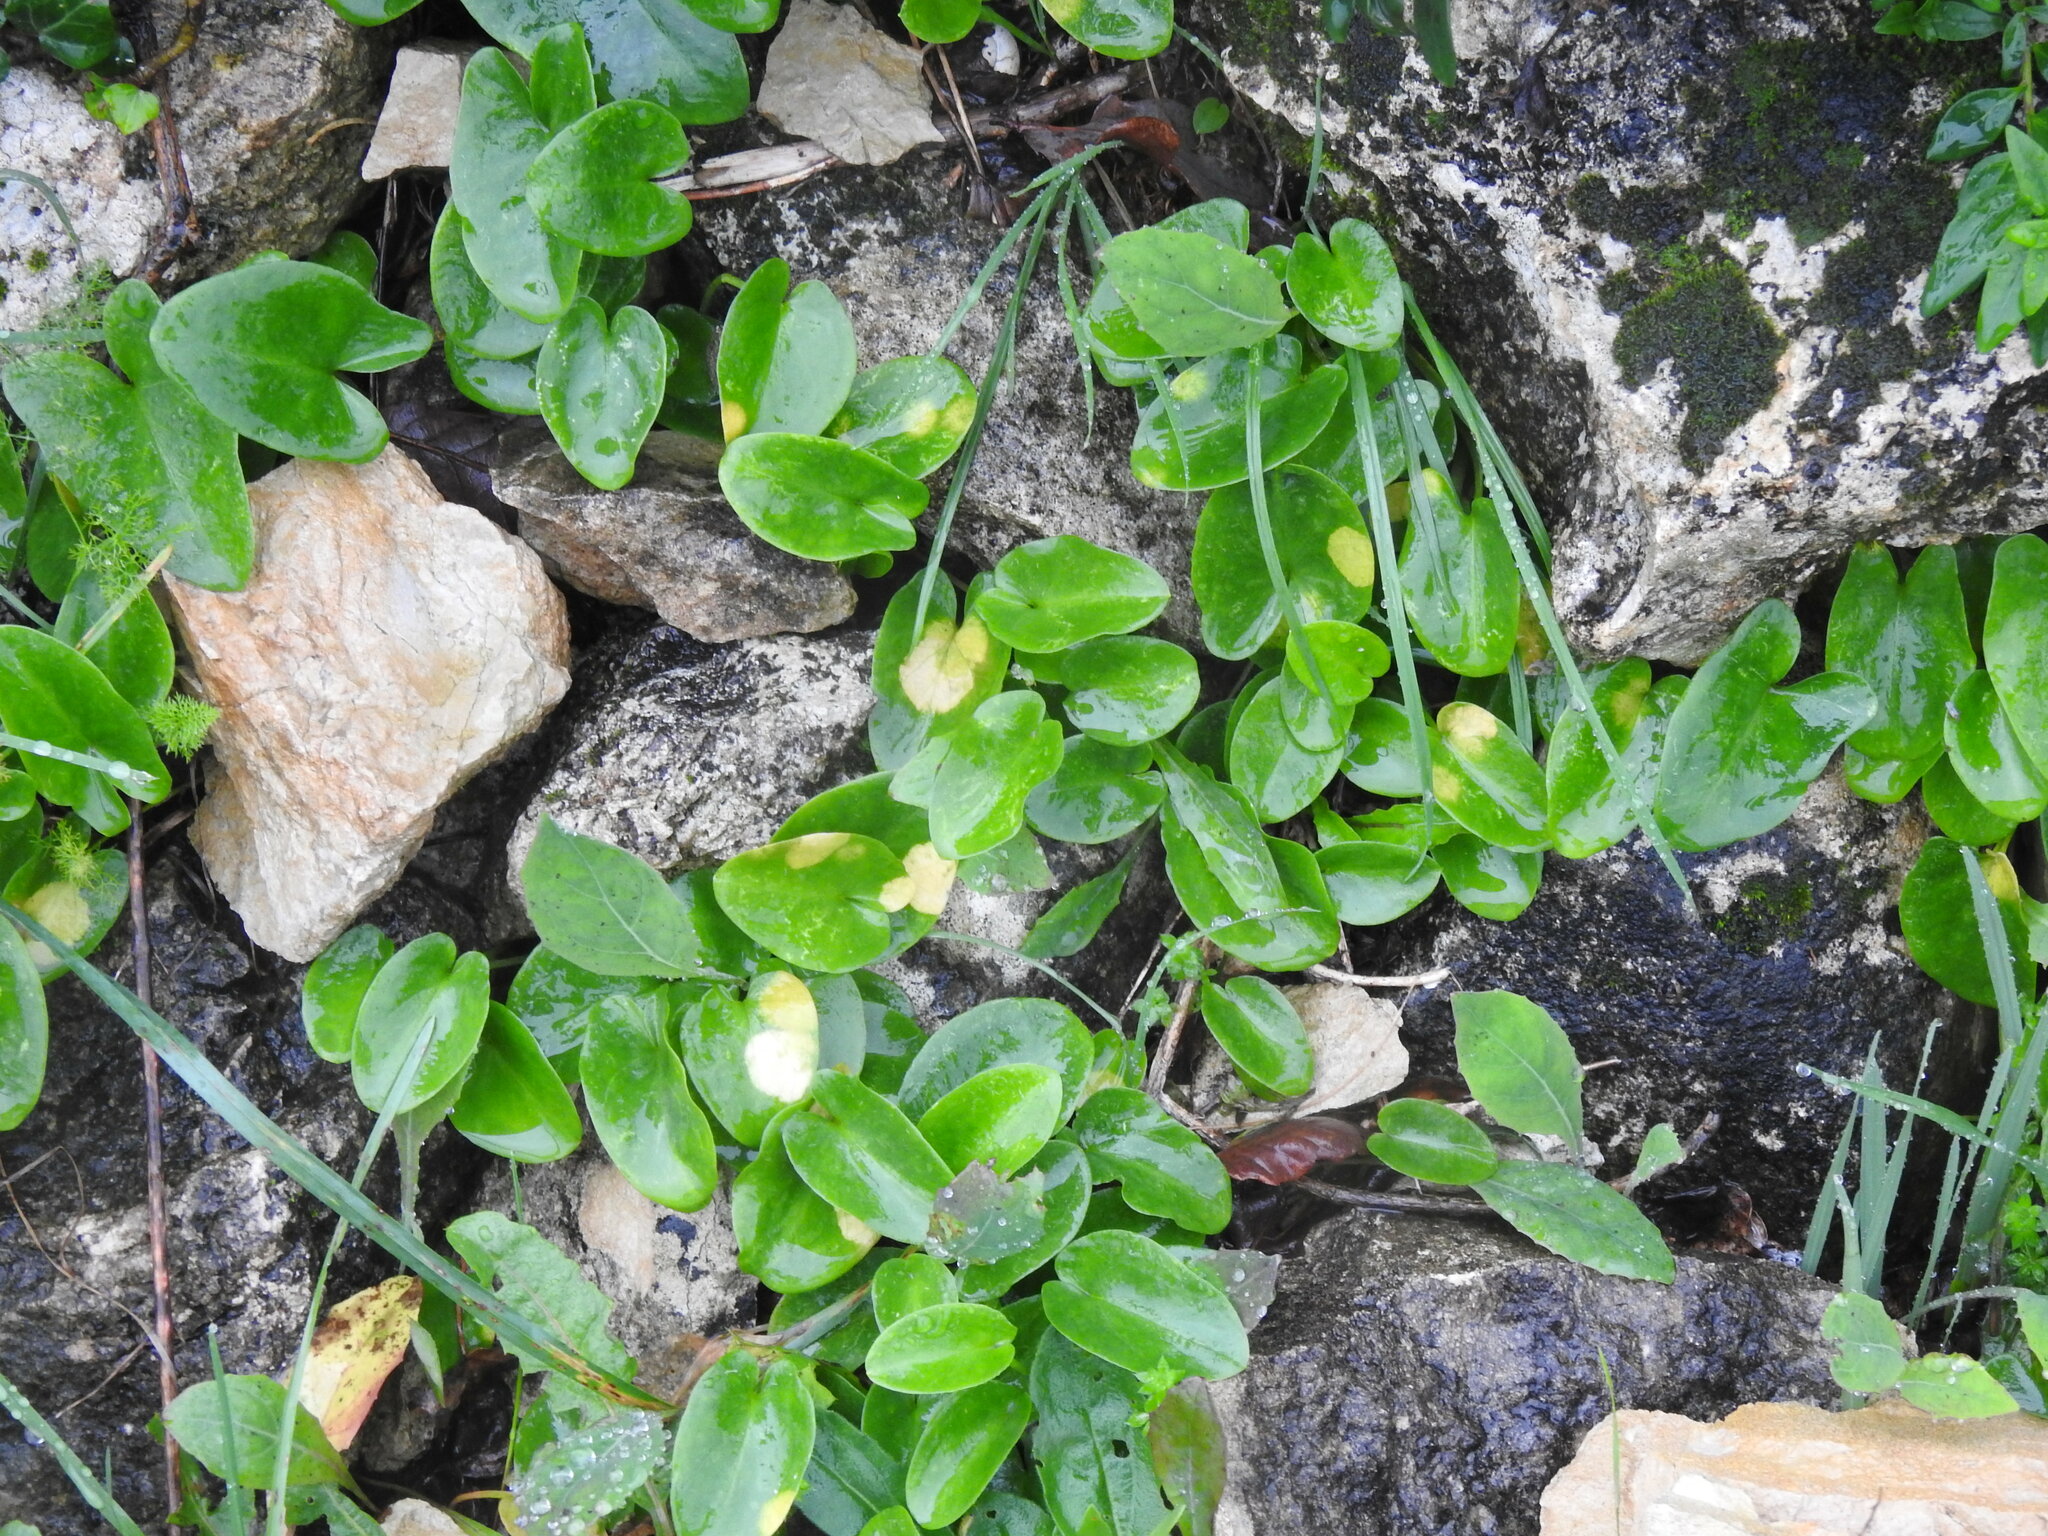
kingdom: Plantae
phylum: Tracheophyta
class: Liliopsida
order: Alismatales
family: Araceae
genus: Arisarum
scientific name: Arisarum simorrhinum
